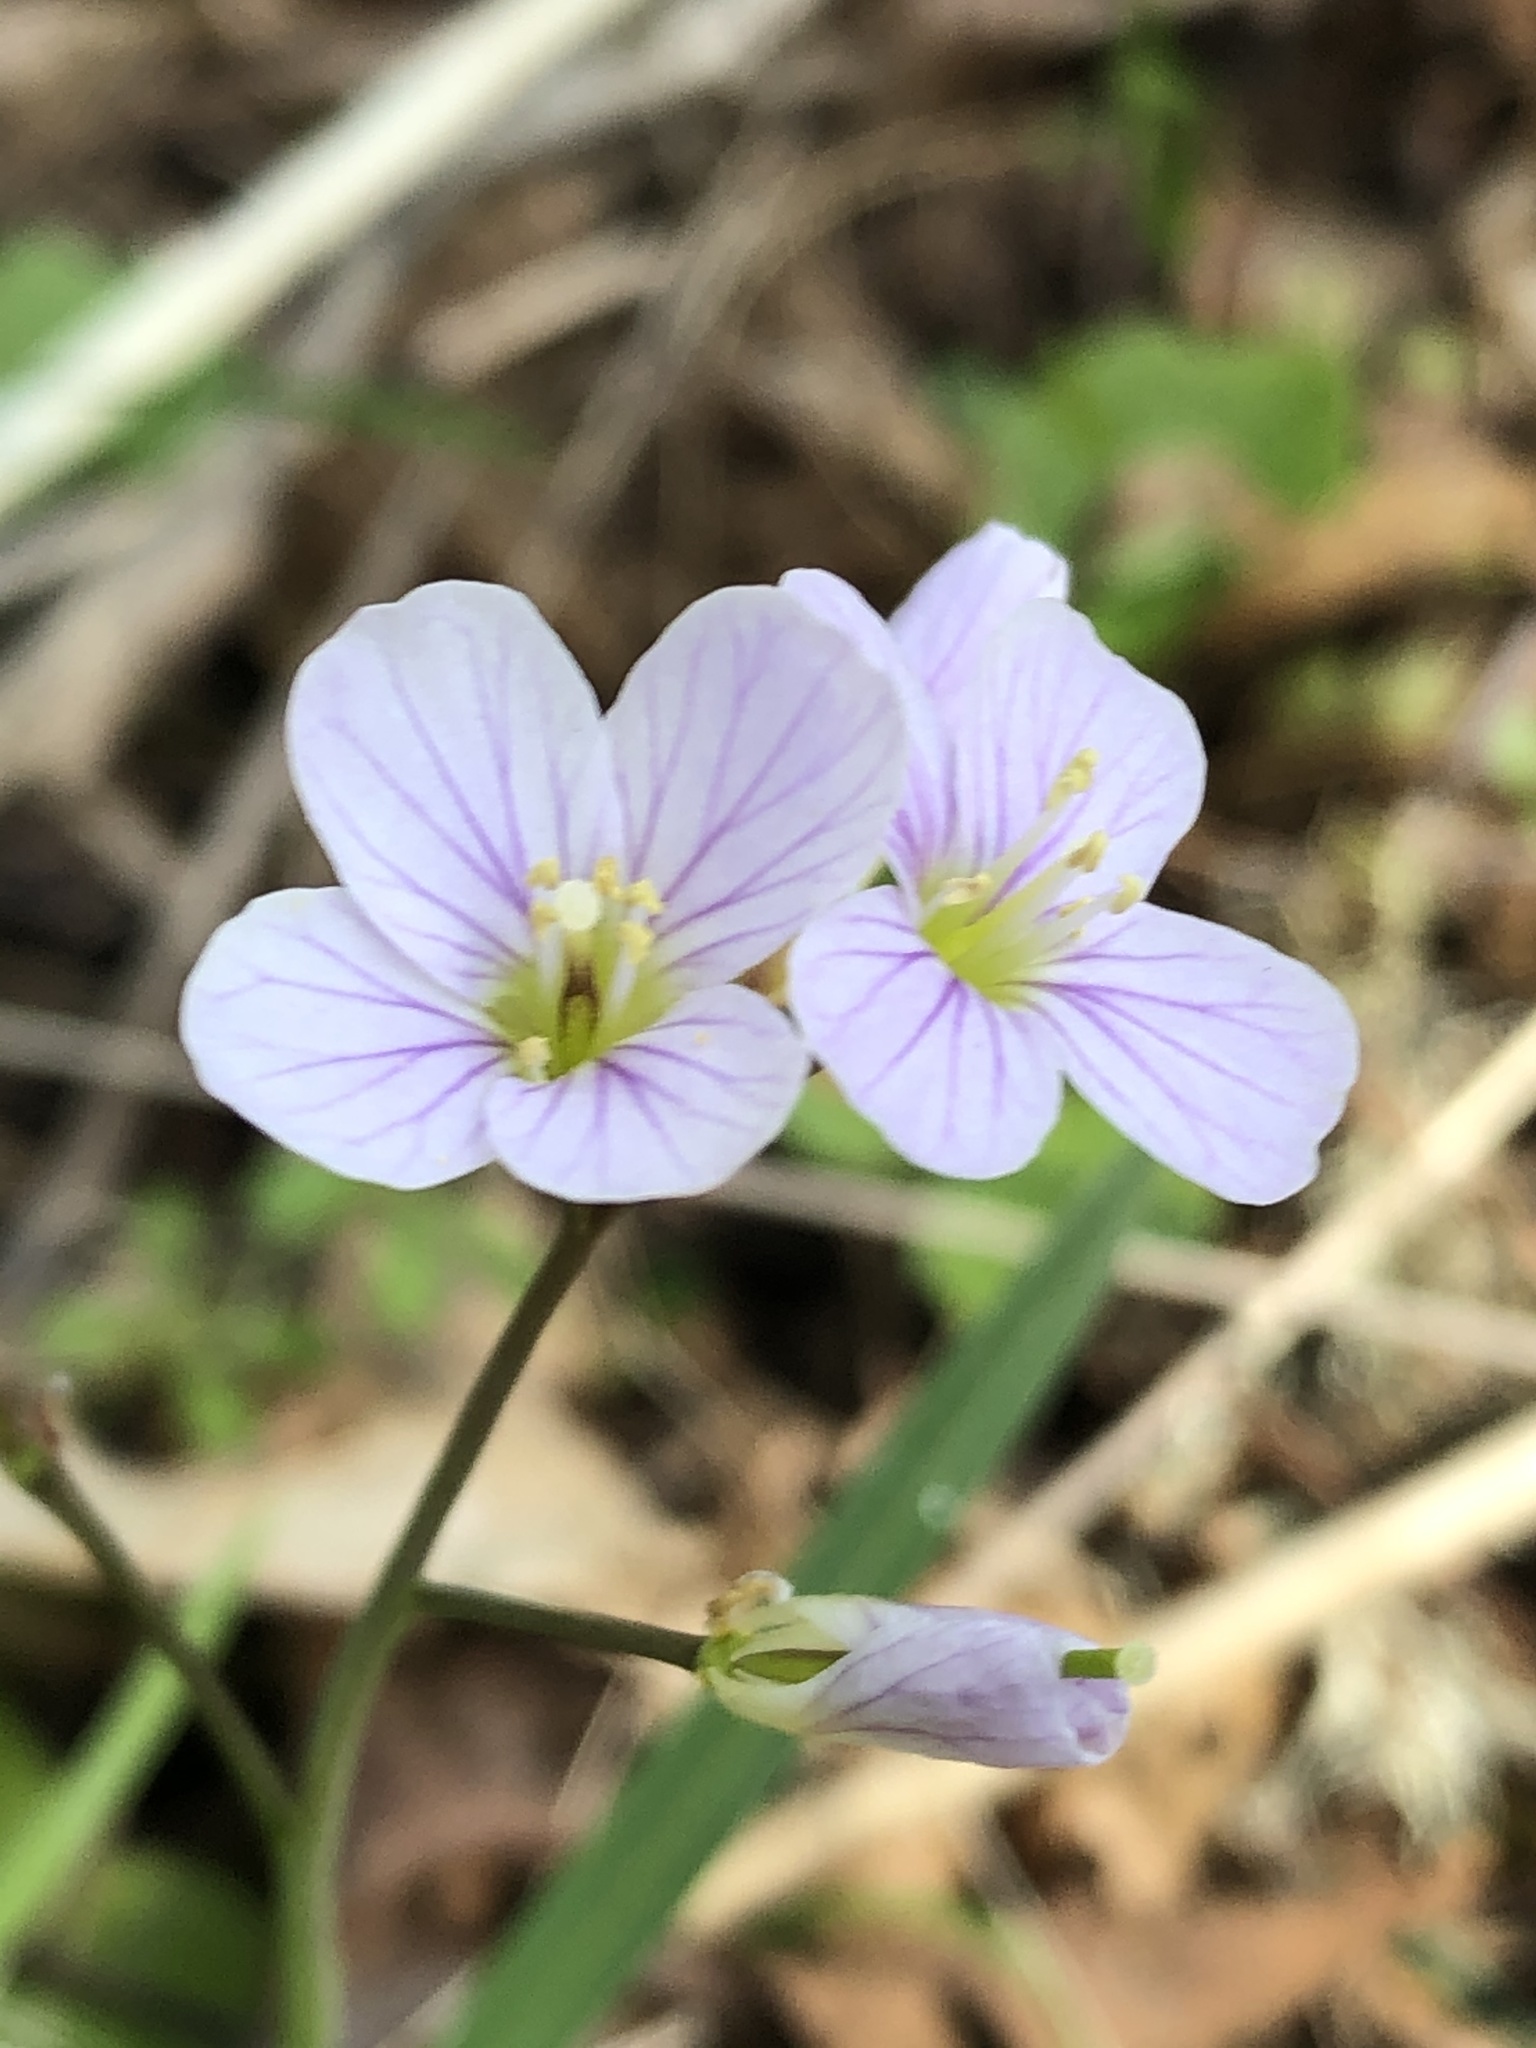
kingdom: Plantae
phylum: Tracheophyta
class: Magnoliopsida
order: Brassicales
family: Brassicaceae
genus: Cardamine
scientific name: Cardamine nuttallii
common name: Nuttall's toothwort
